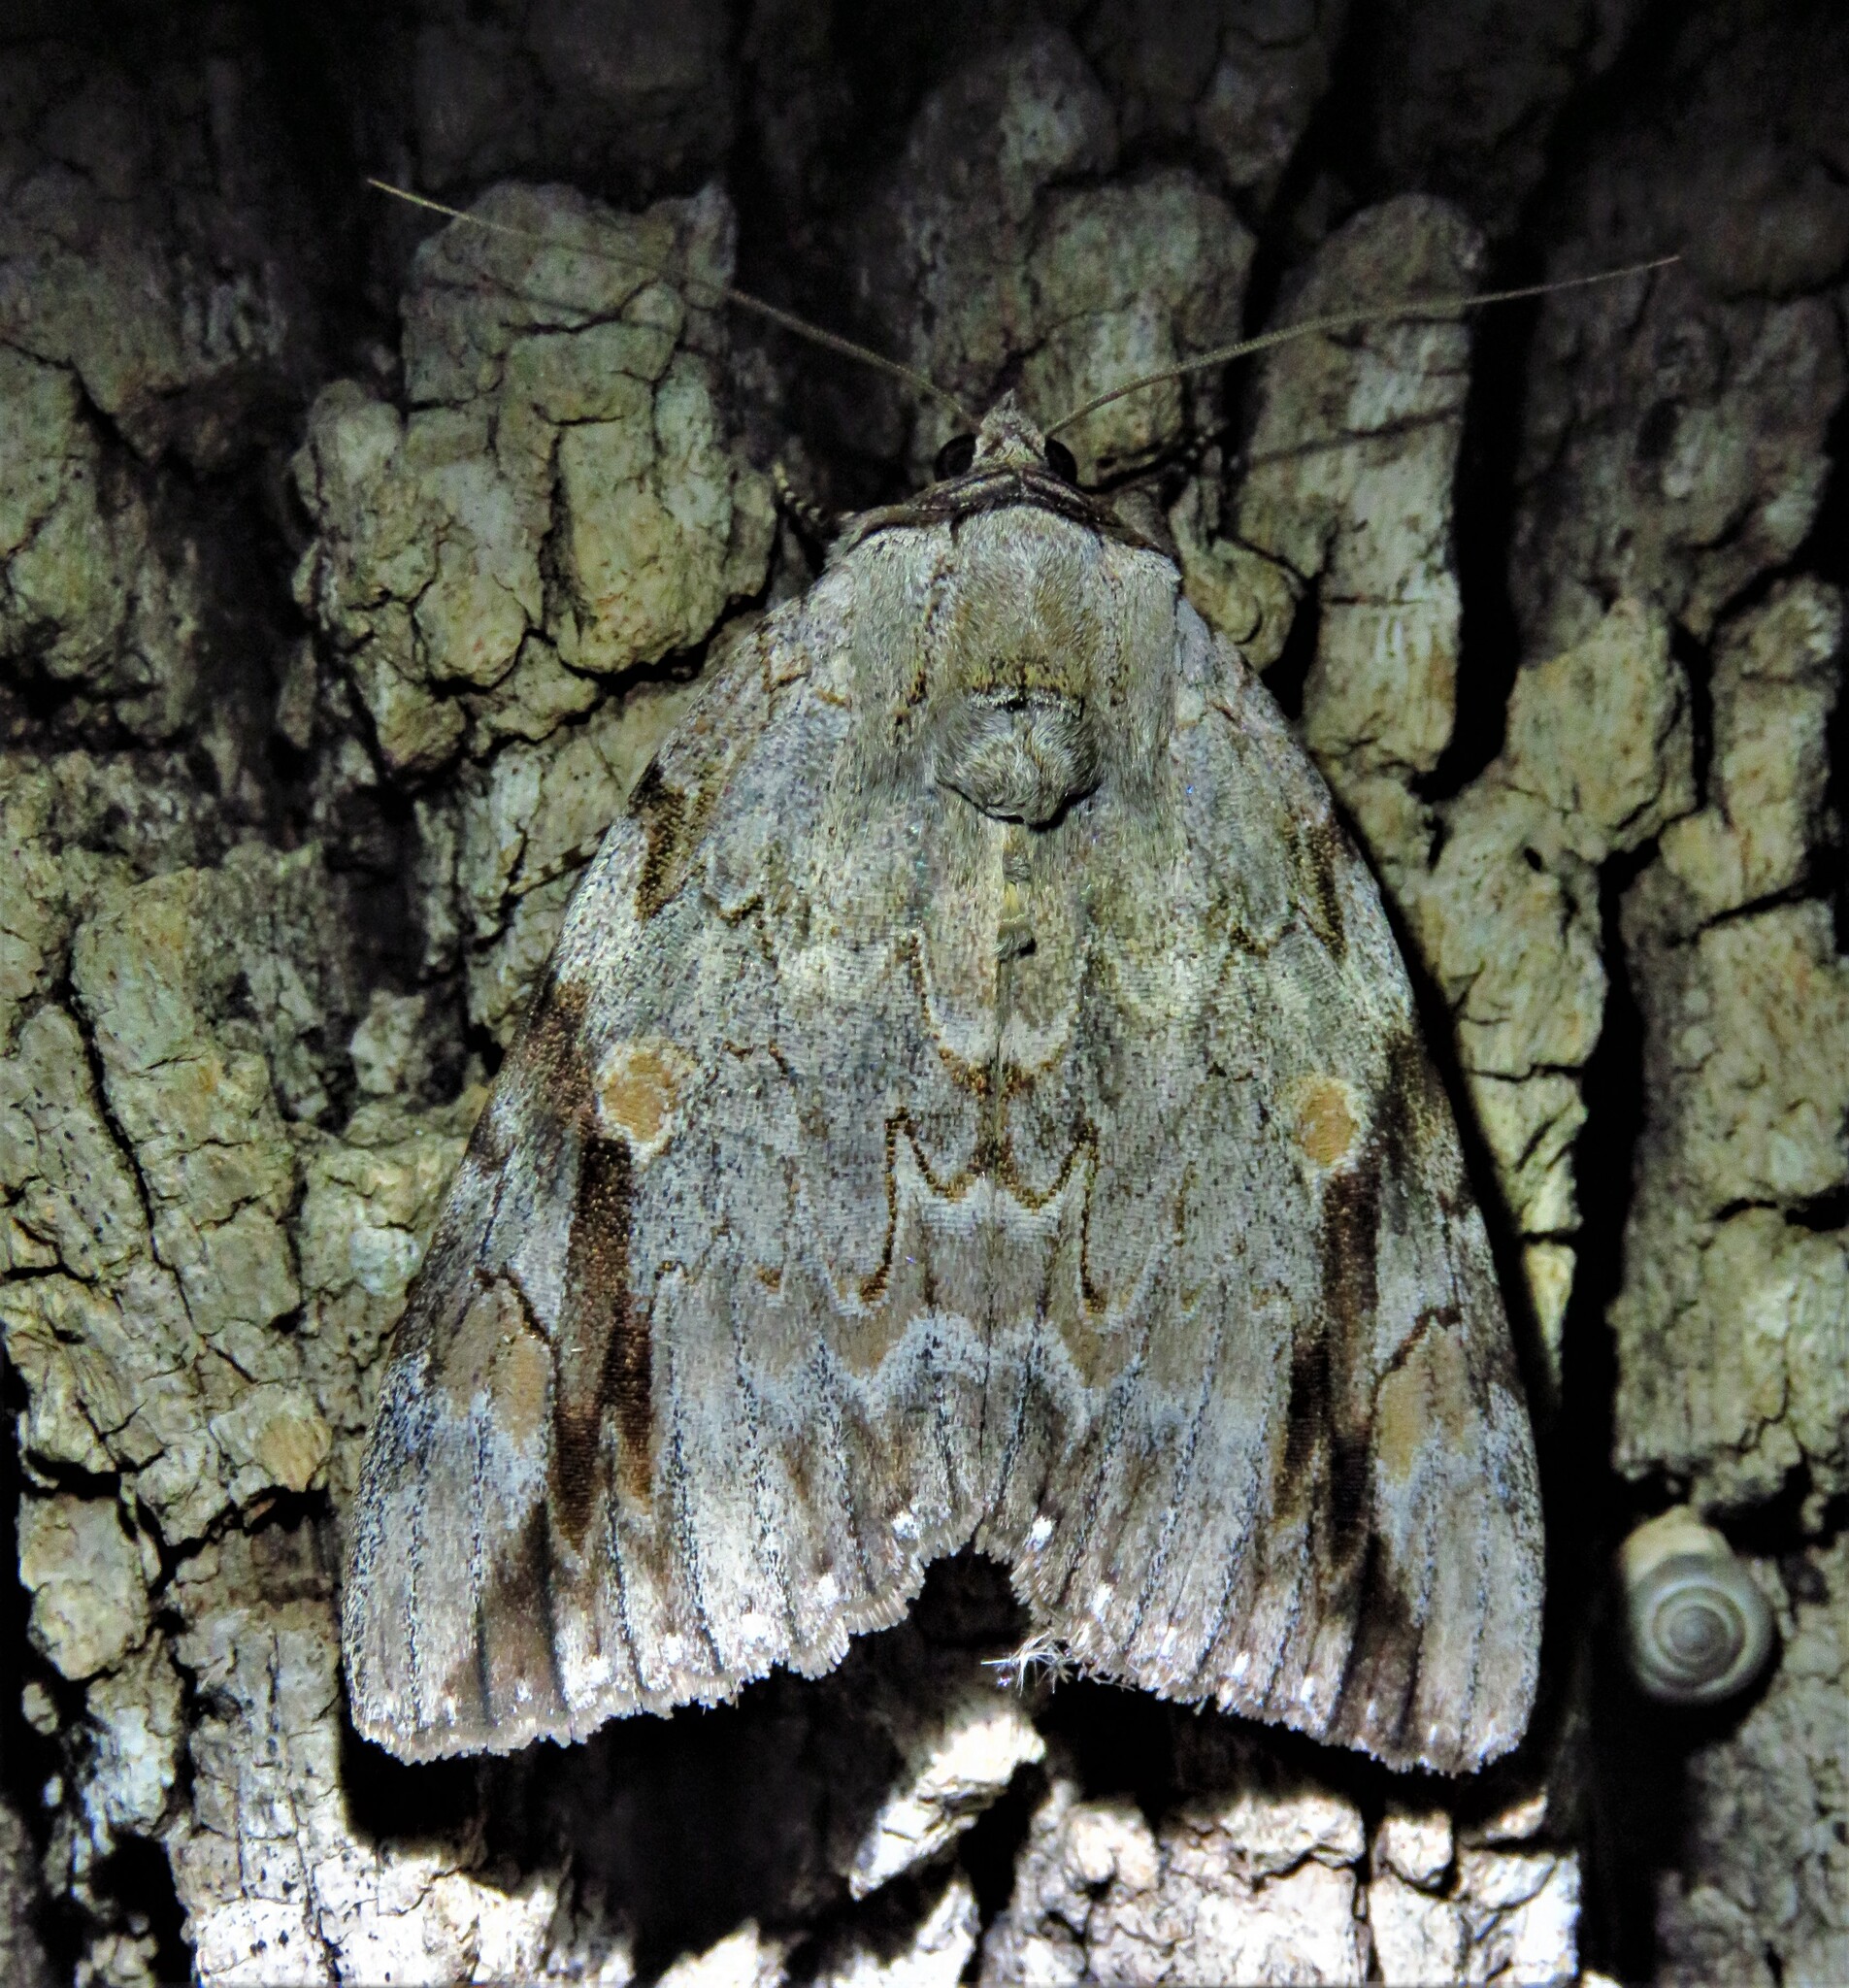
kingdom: Animalia
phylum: Arthropoda
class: Insecta
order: Lepidoptera
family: Erebidae
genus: Catocala
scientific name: Catocala maestosa
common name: Sad underwing
